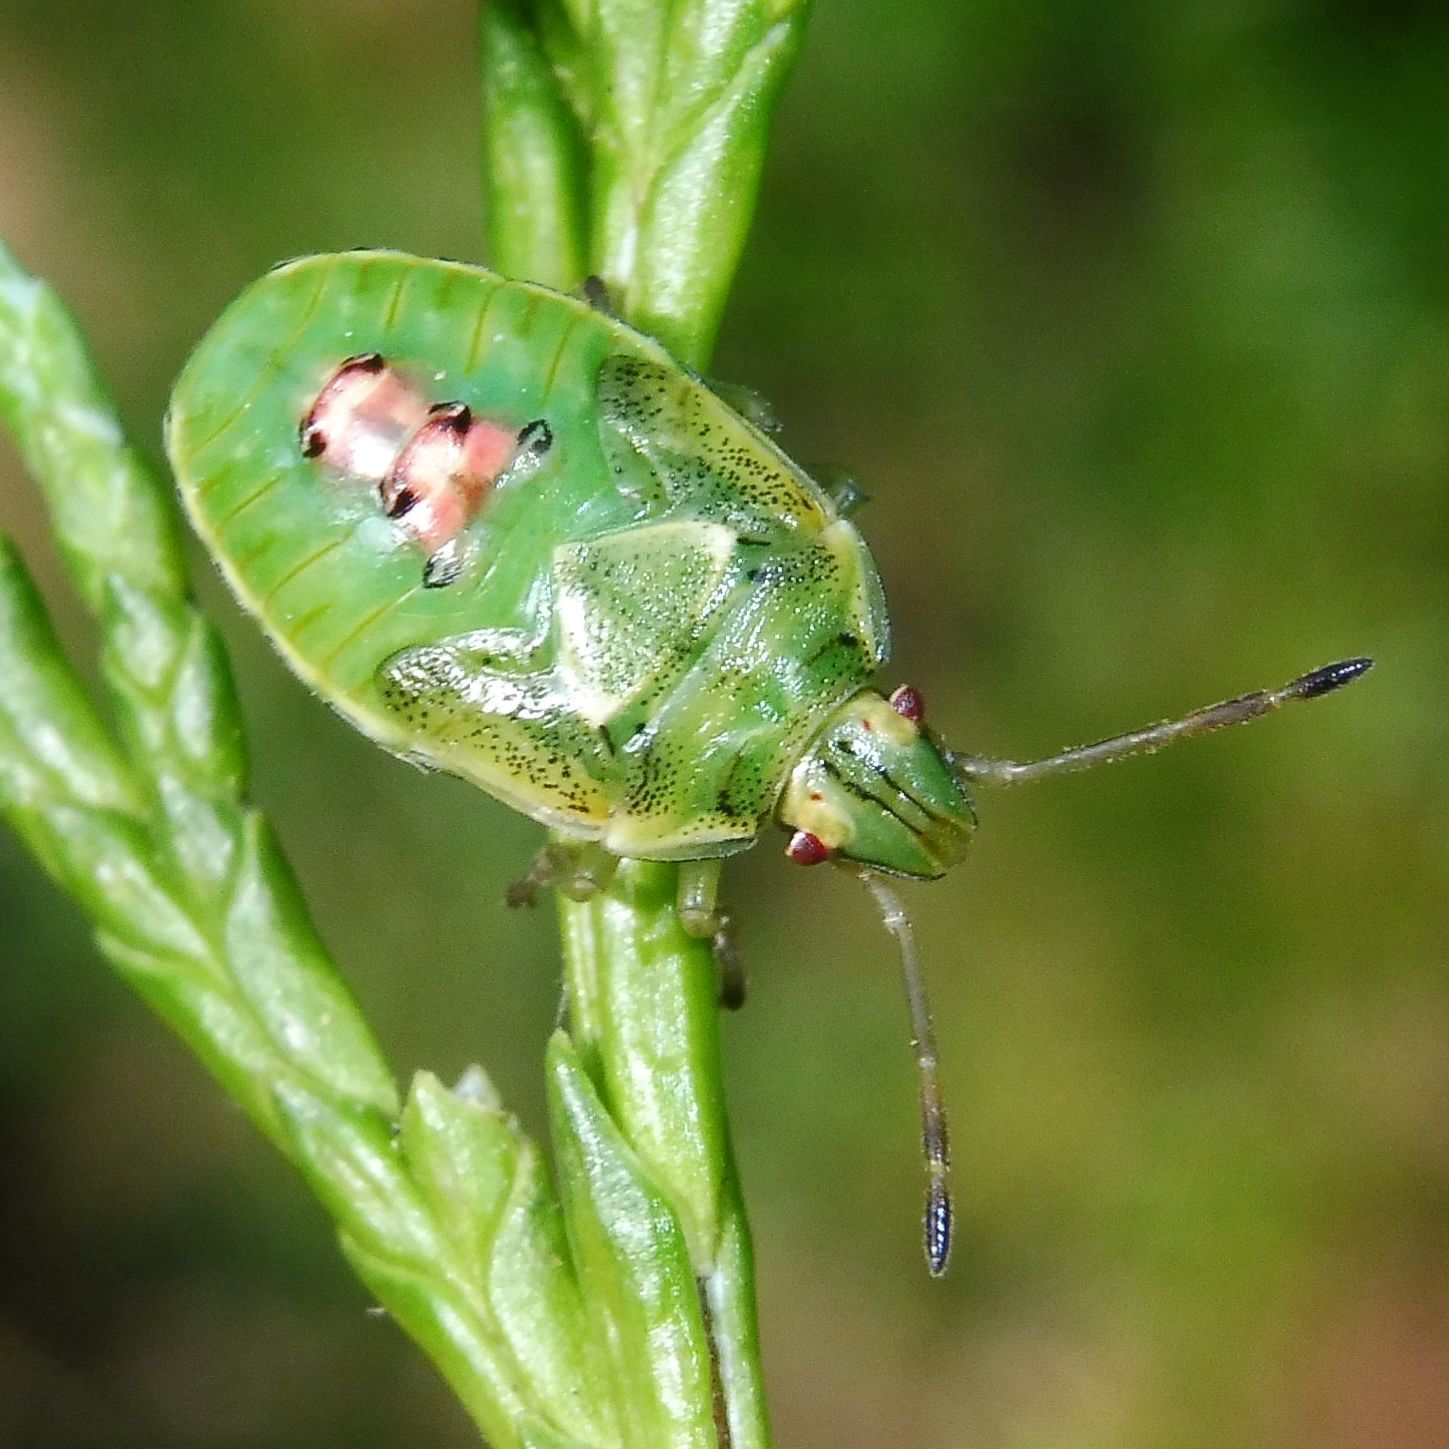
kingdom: Animalia
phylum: Arthropoda
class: Insecta
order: Hemiptera
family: Acanthosomatidae
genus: Cyphostethus
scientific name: Cyphostethus tristriatus
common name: Juniper shieldbug
